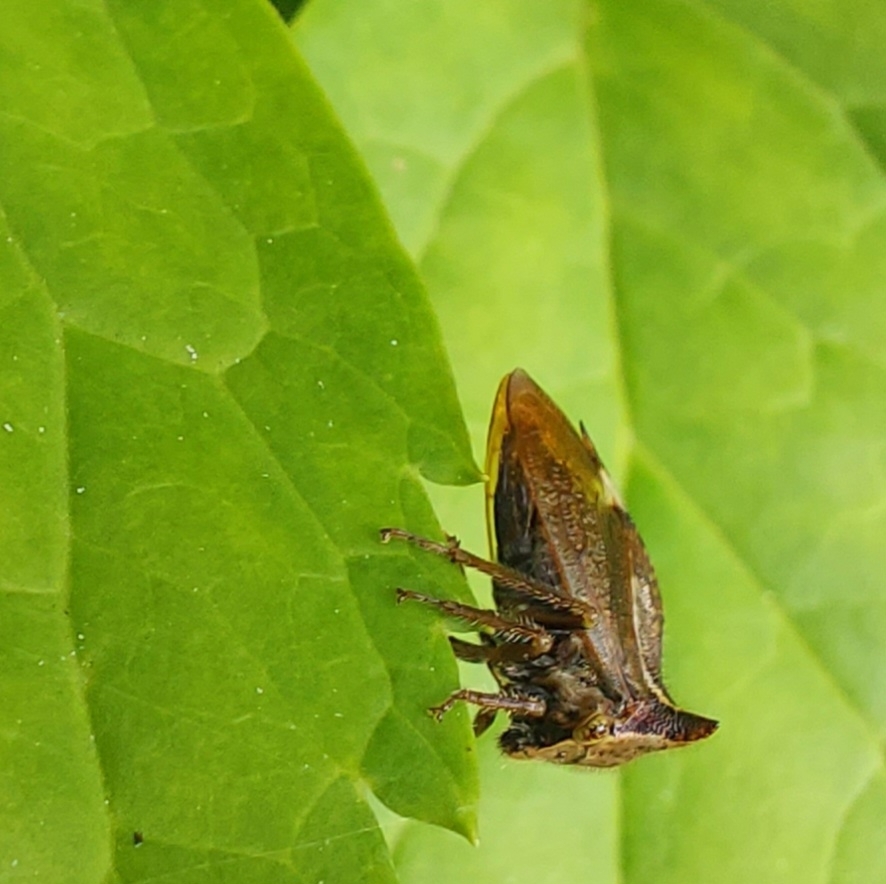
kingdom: Animalia
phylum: Arthropoda
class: Insecta
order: Hemiptera
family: Membracidae
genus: Stictocephala
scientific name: Stictocephala diceros
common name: Two-horned treehopper
